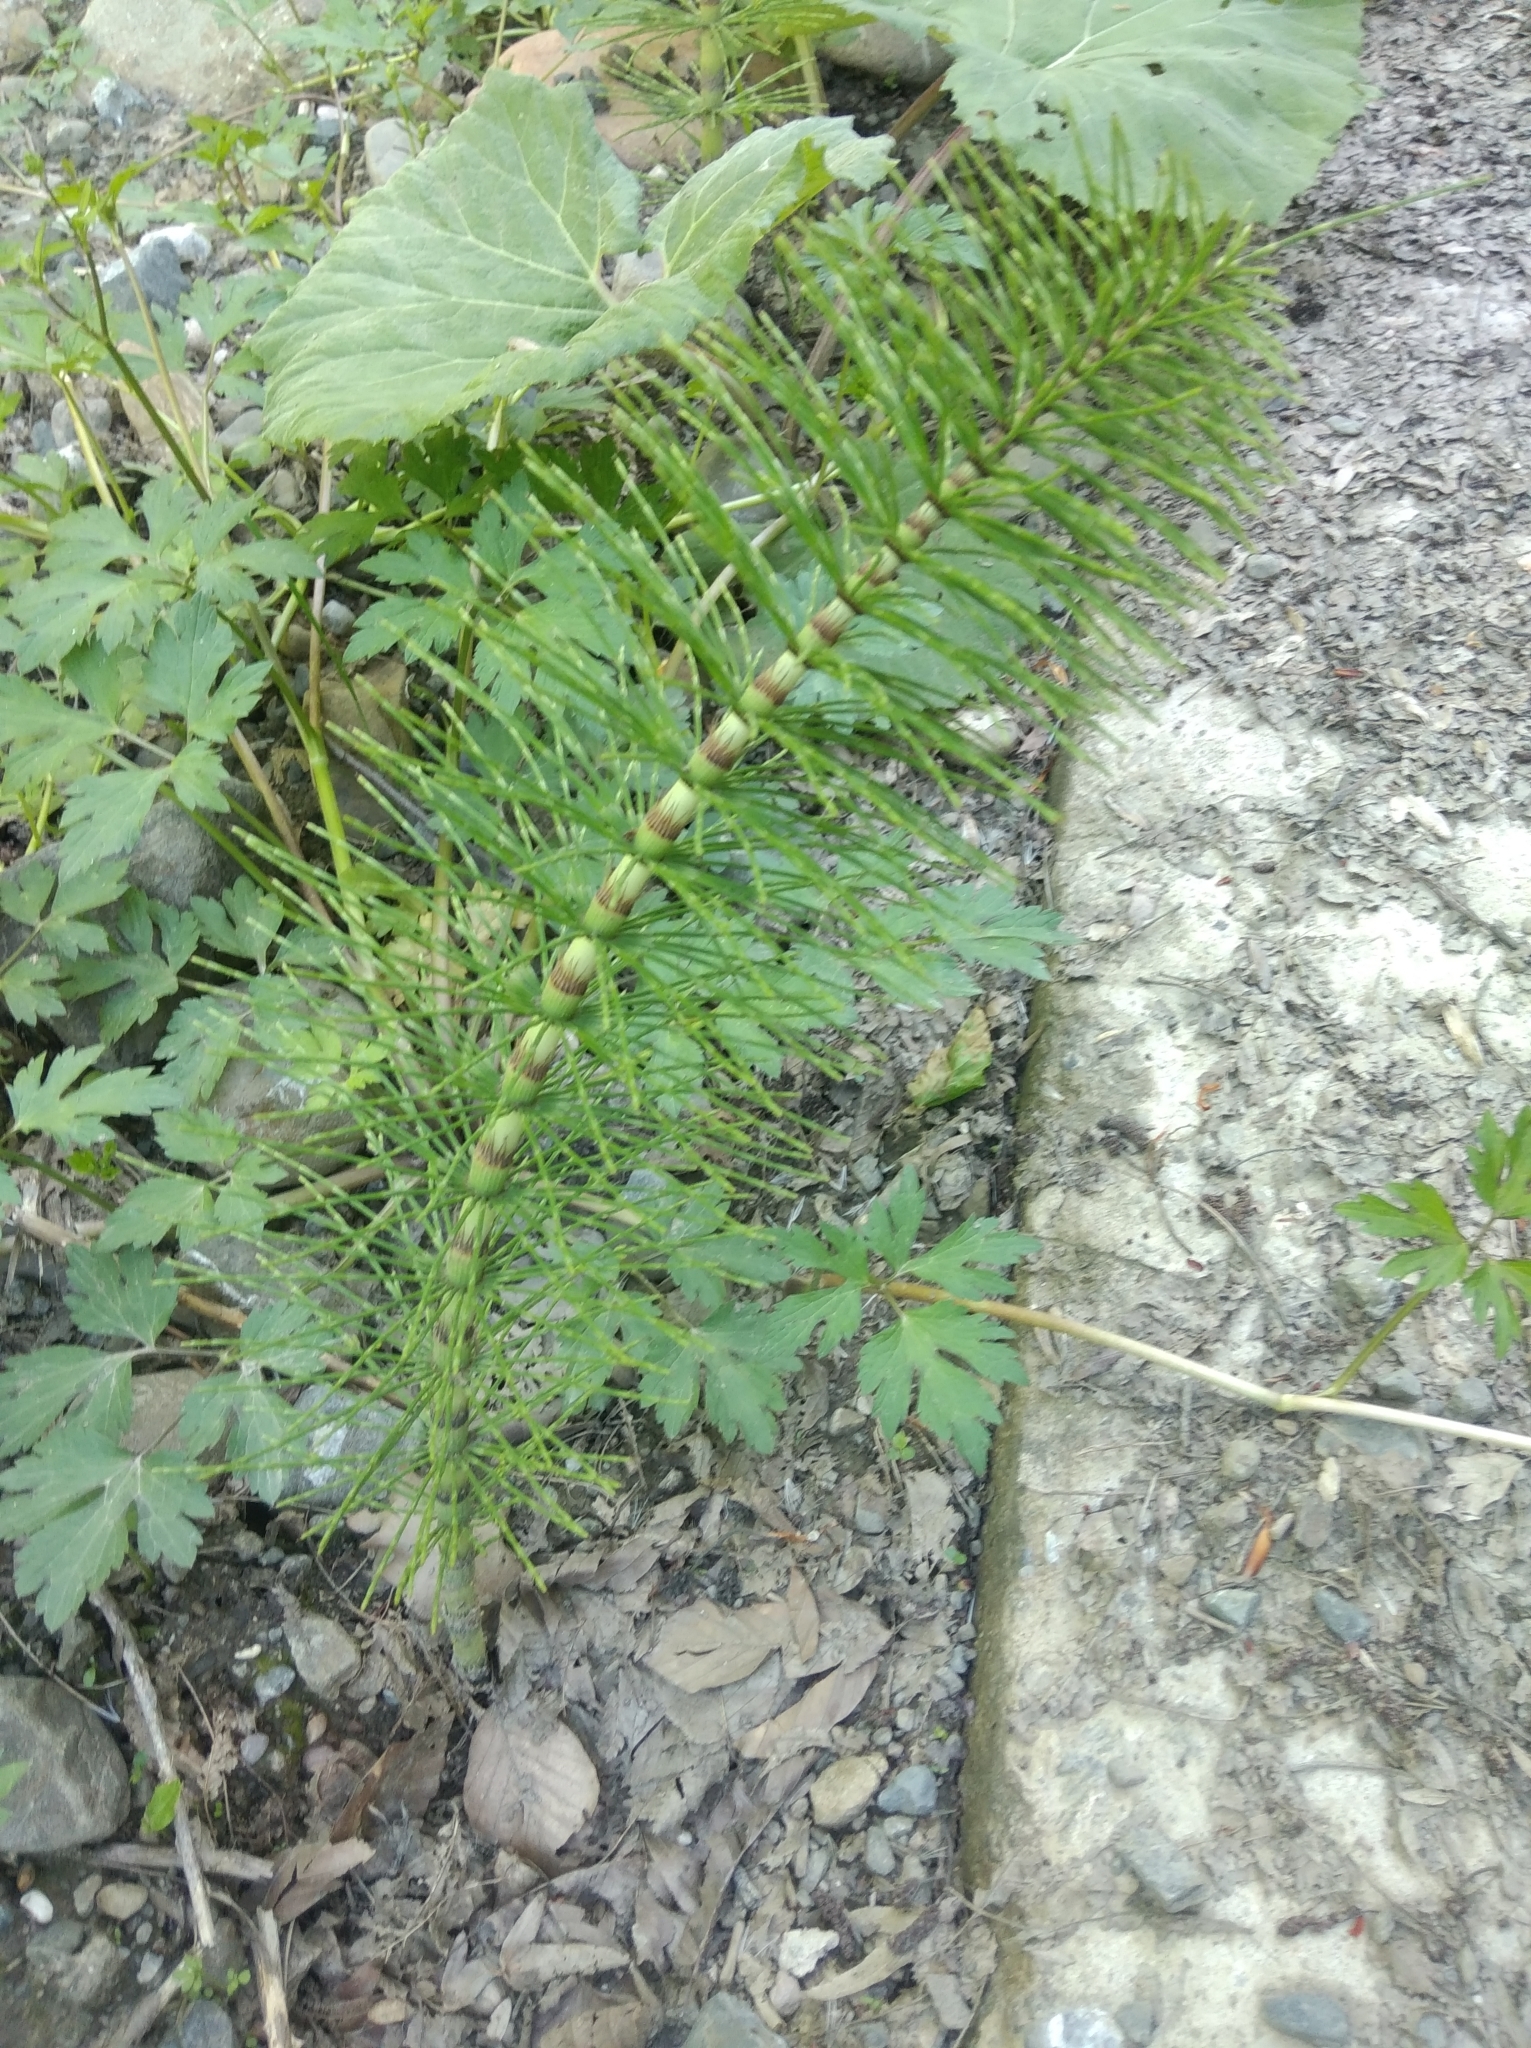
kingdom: Plantae
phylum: Tracheophyta
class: Polypodiopsida
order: Equisetales
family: Equisetaceae
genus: Equisetum
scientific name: Equisetum telmateia
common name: Great horsetail
